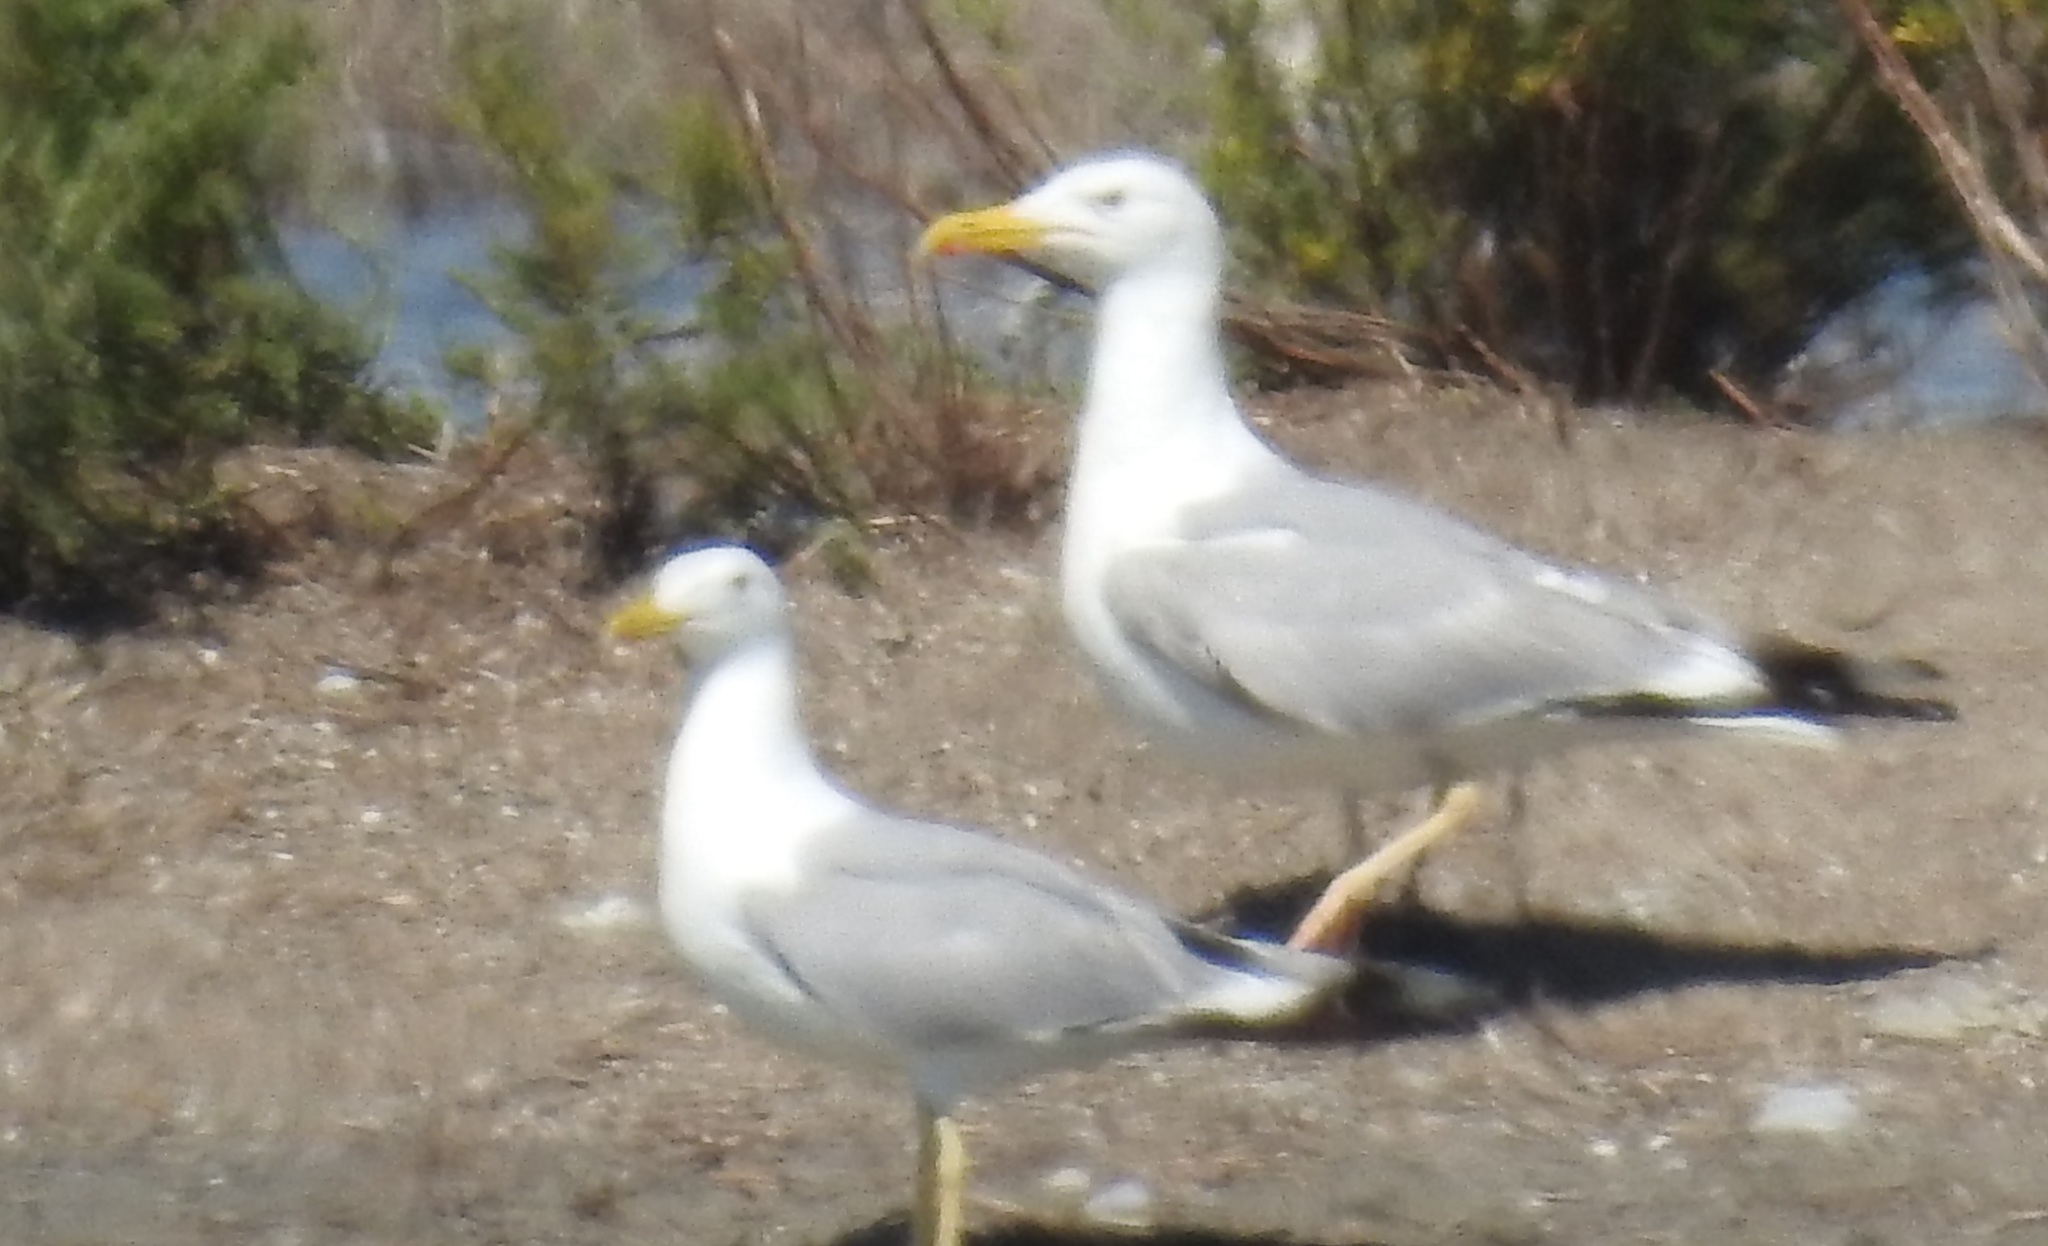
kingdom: Animalia
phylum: Chordata
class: Aves
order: Charadriiformes
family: Laridae
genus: Larus
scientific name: Larus cachinnans
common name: Caspian gull
